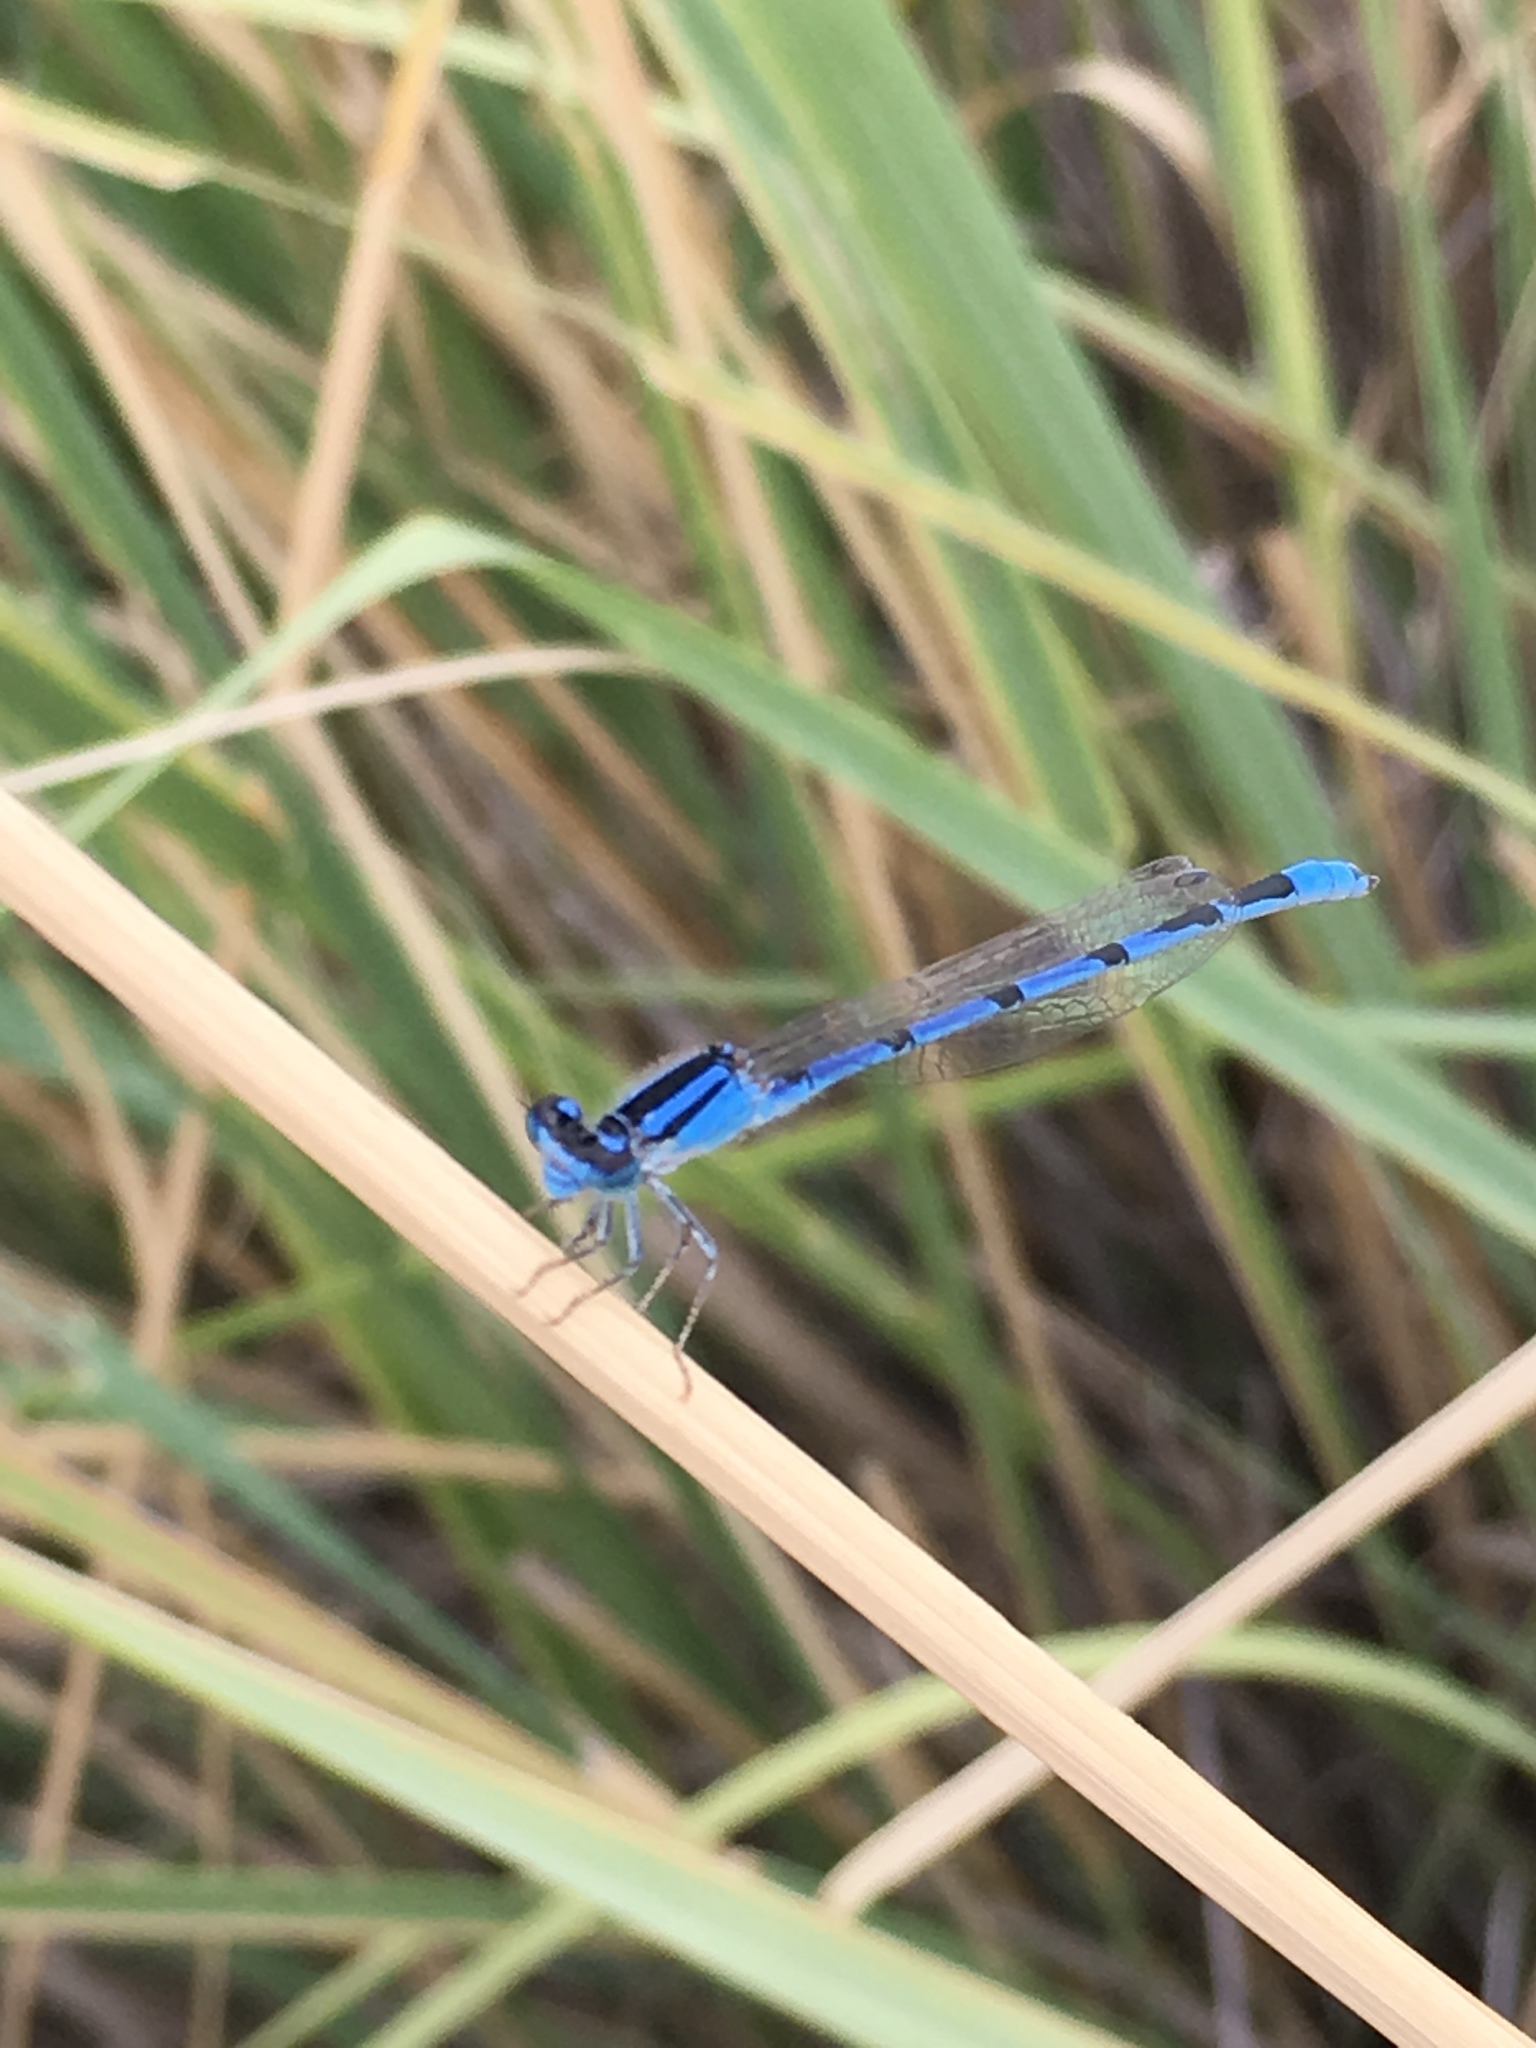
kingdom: Animalia
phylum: Arthropoda
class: Insecta
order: Odonata
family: Coenagrionidae
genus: Enallagma
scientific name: Enallagma civile
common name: Damselfly
